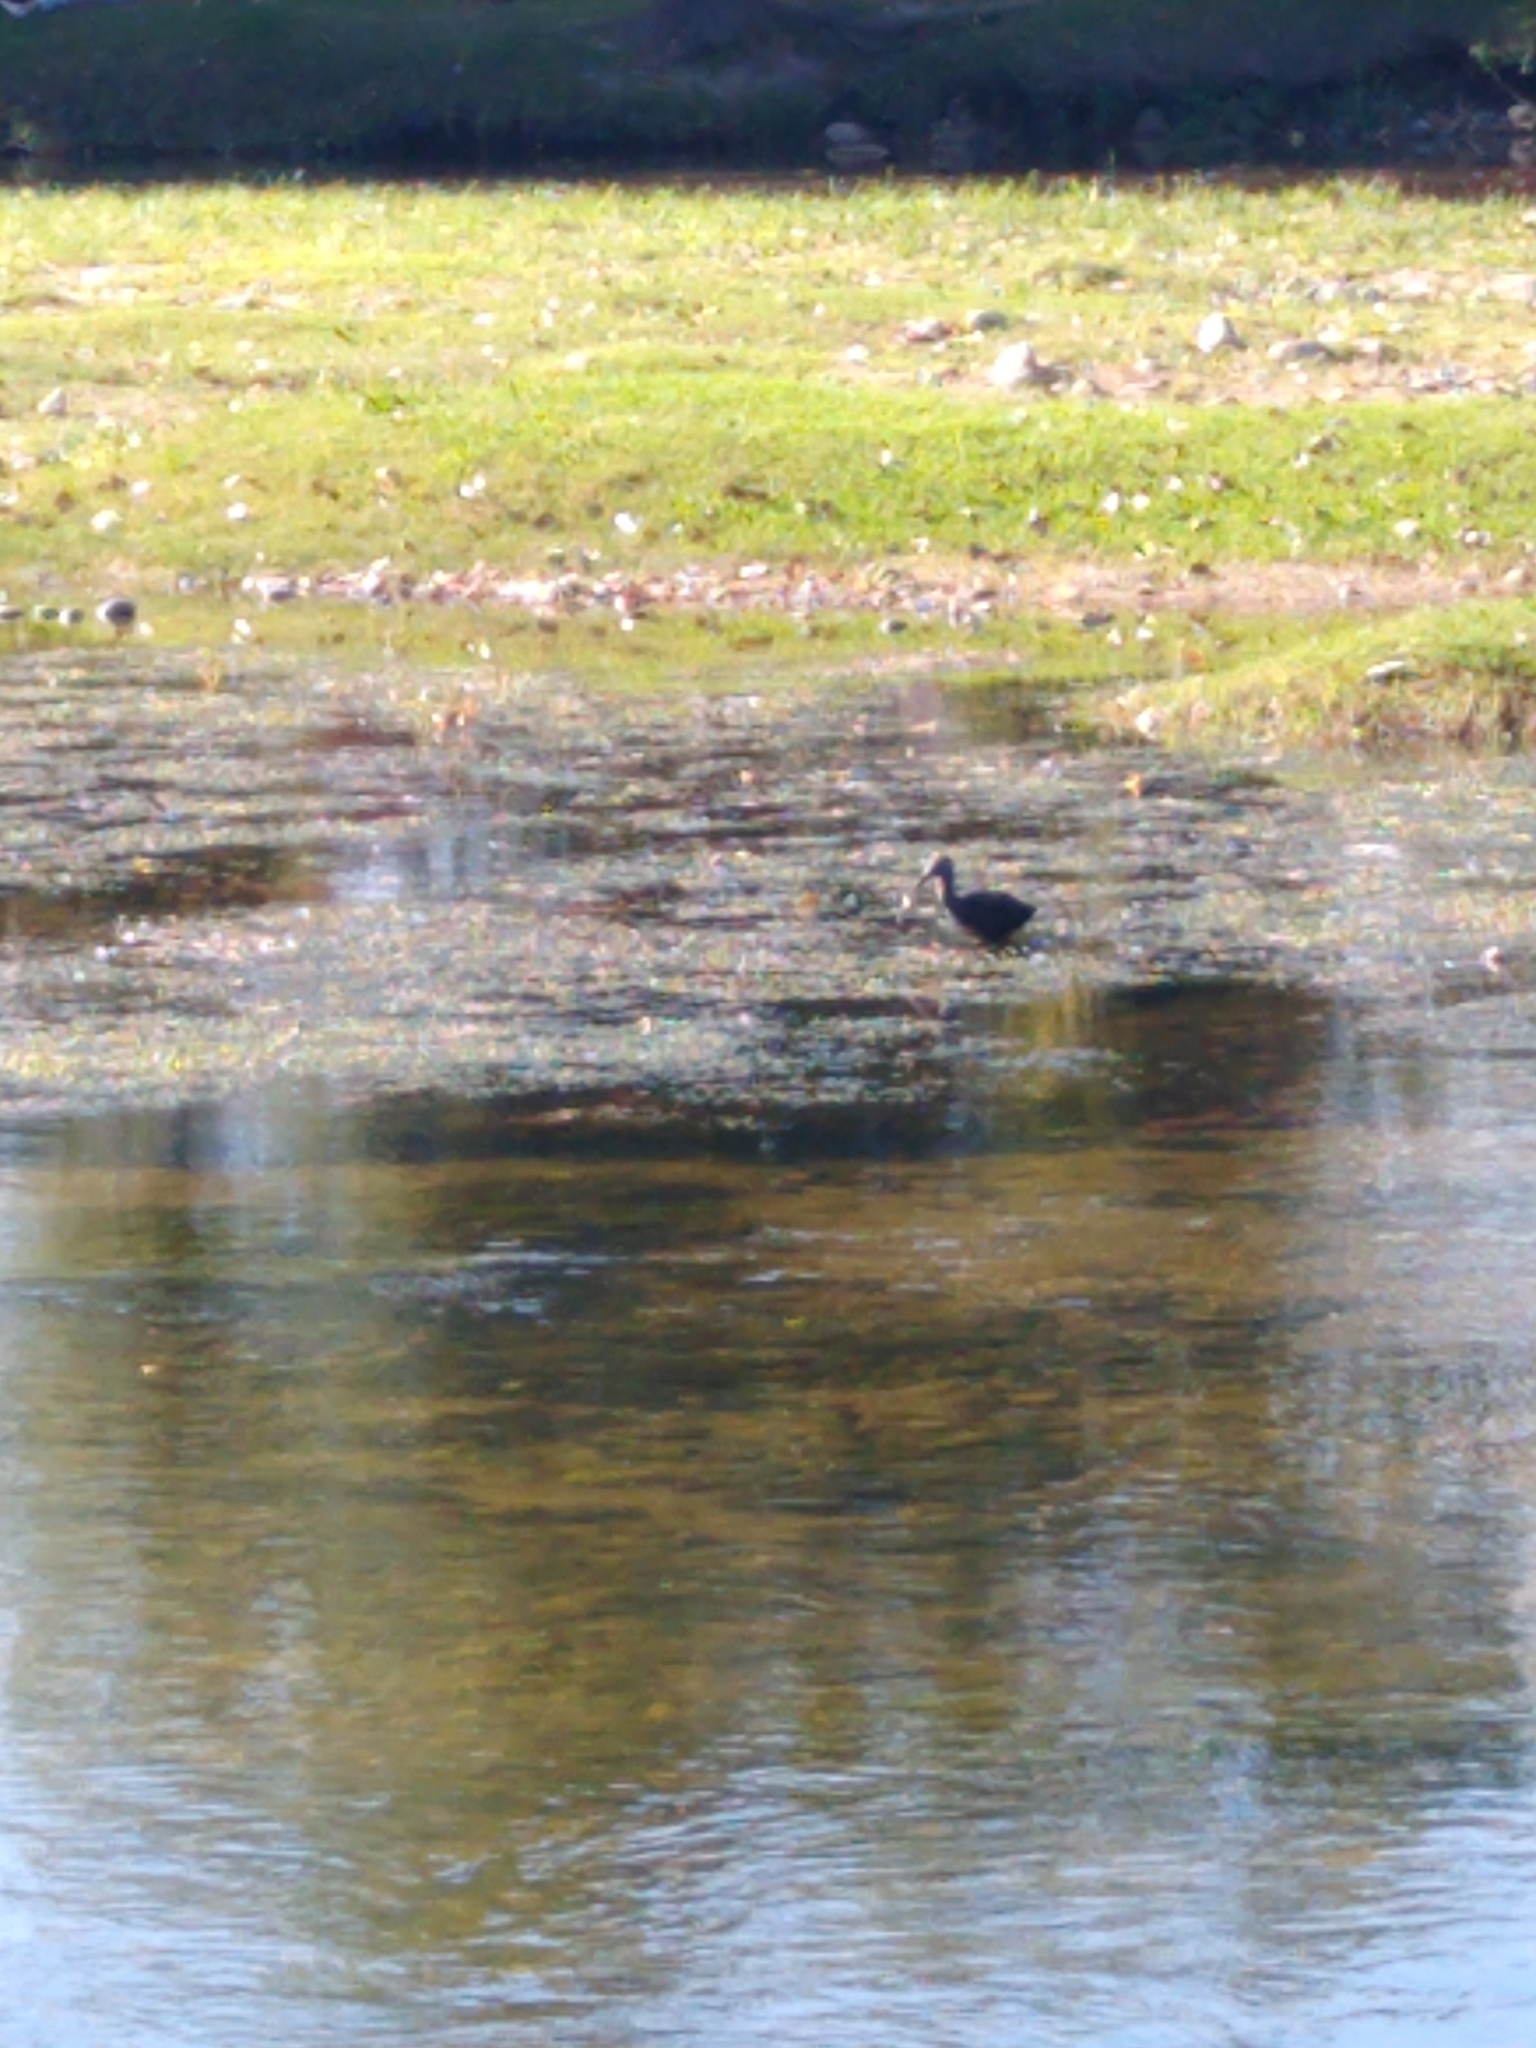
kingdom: Animalia
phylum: Chordata
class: Aves
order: Pelecaniformes
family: Threskiornithidae
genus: Plegadis
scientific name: Plegadis chihi
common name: White-faced ibis
